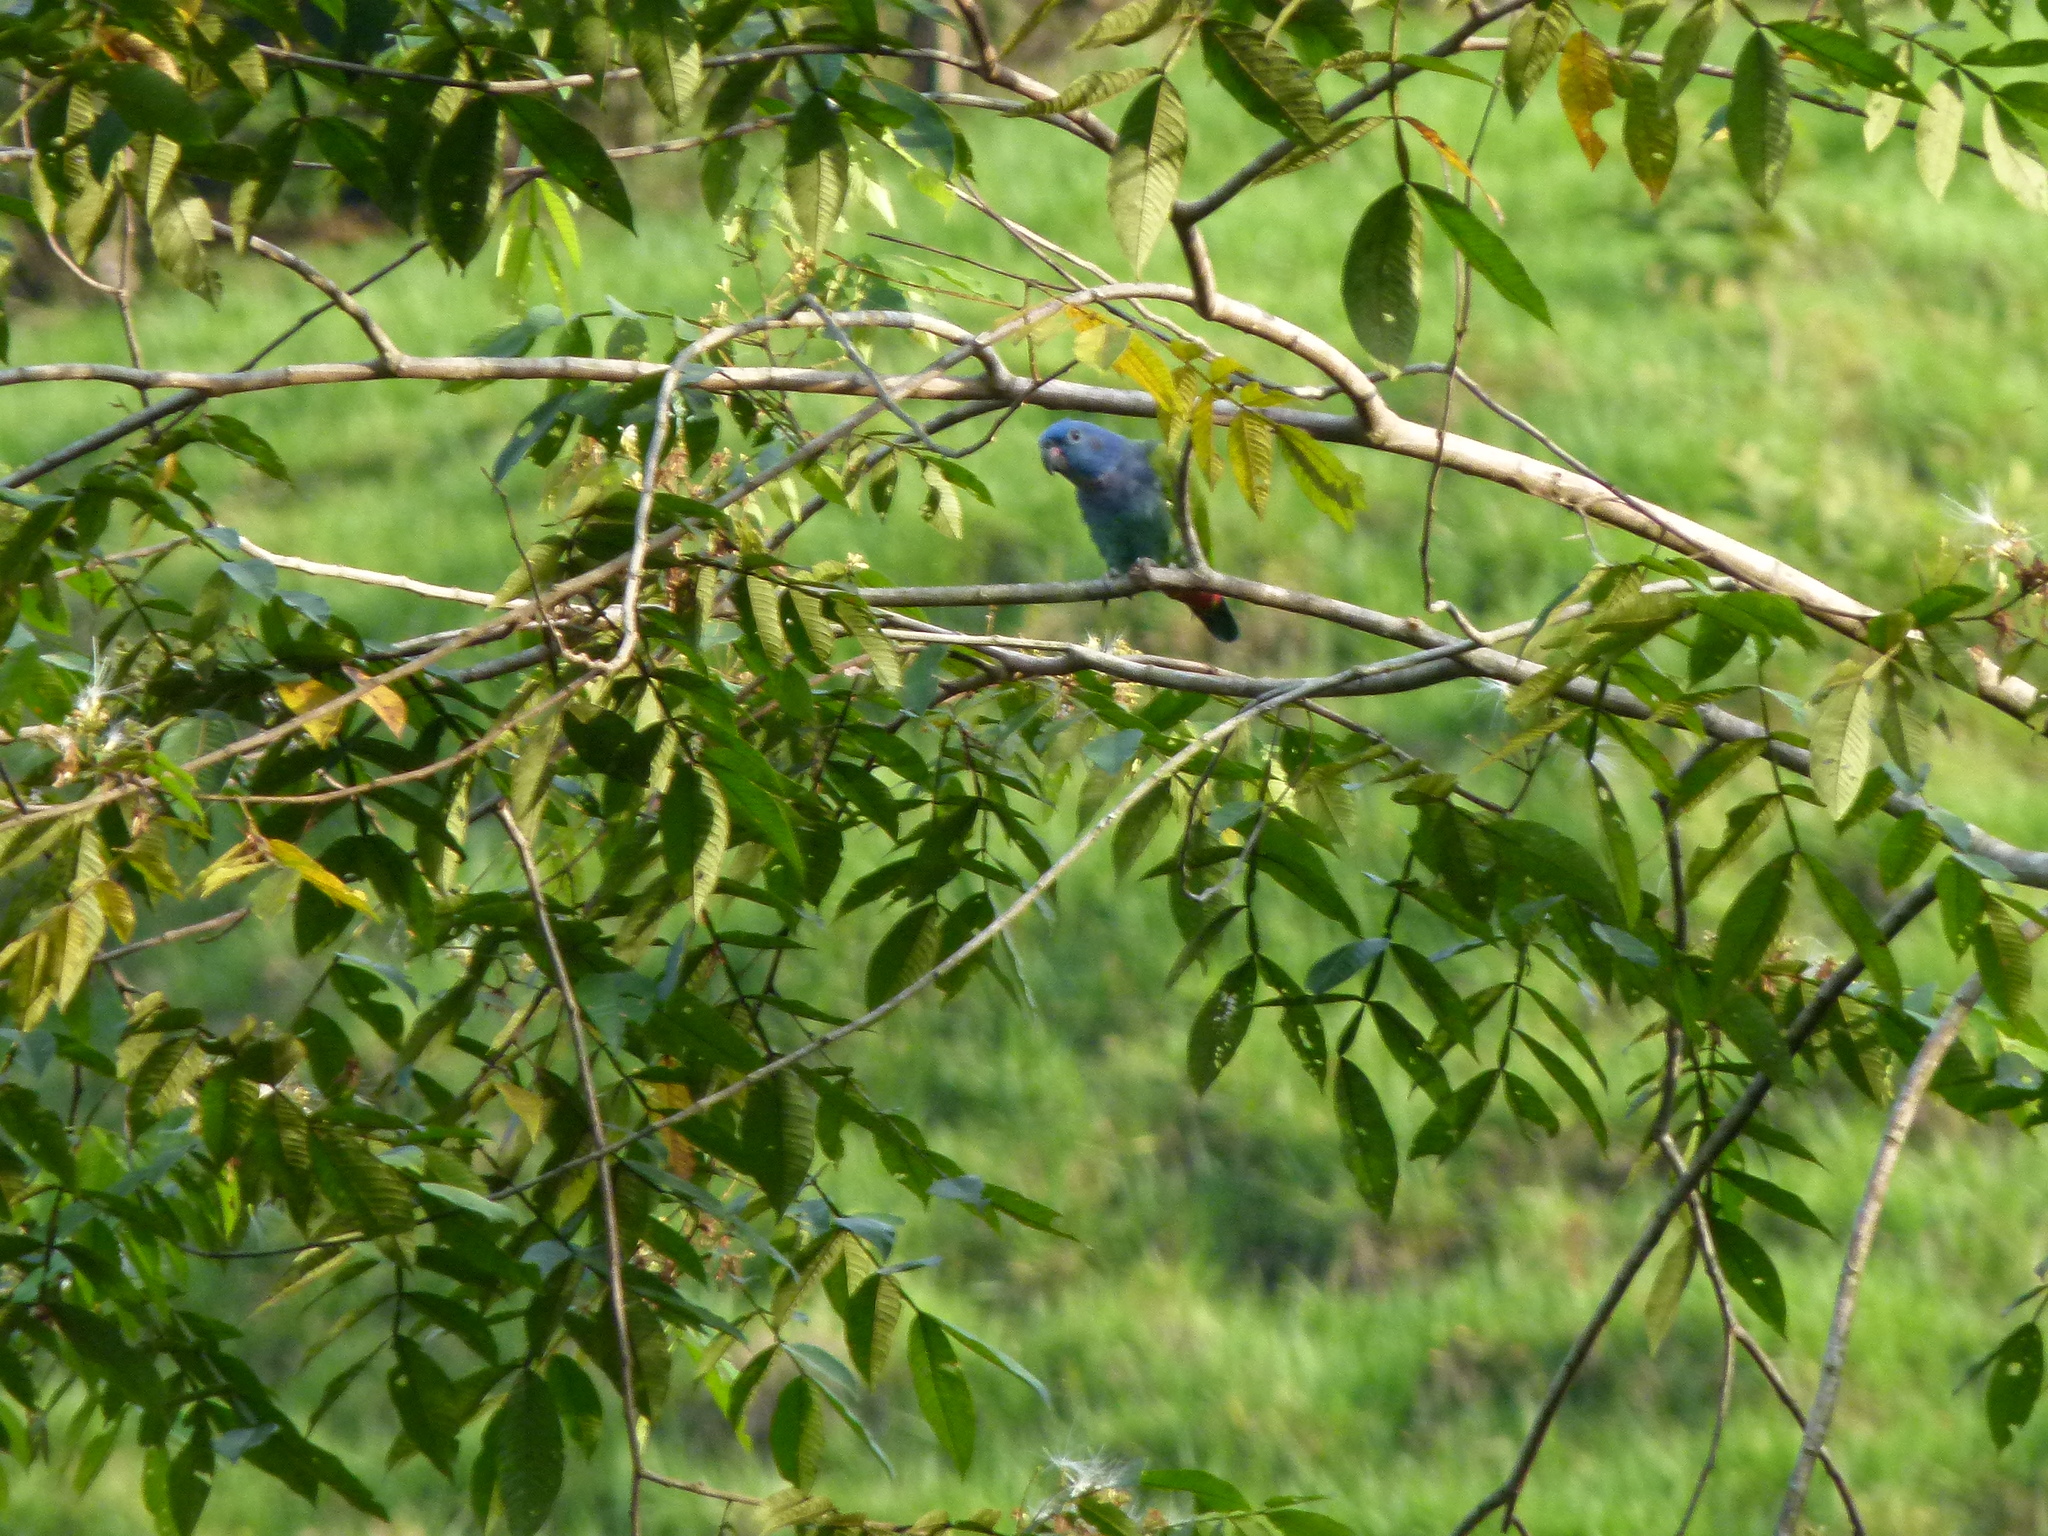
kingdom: Animalia
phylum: Chordata
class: Aves
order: Psittaciformes
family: Psittacidae
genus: Pionus
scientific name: Pionus menstruus
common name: Blue-headed parrot
